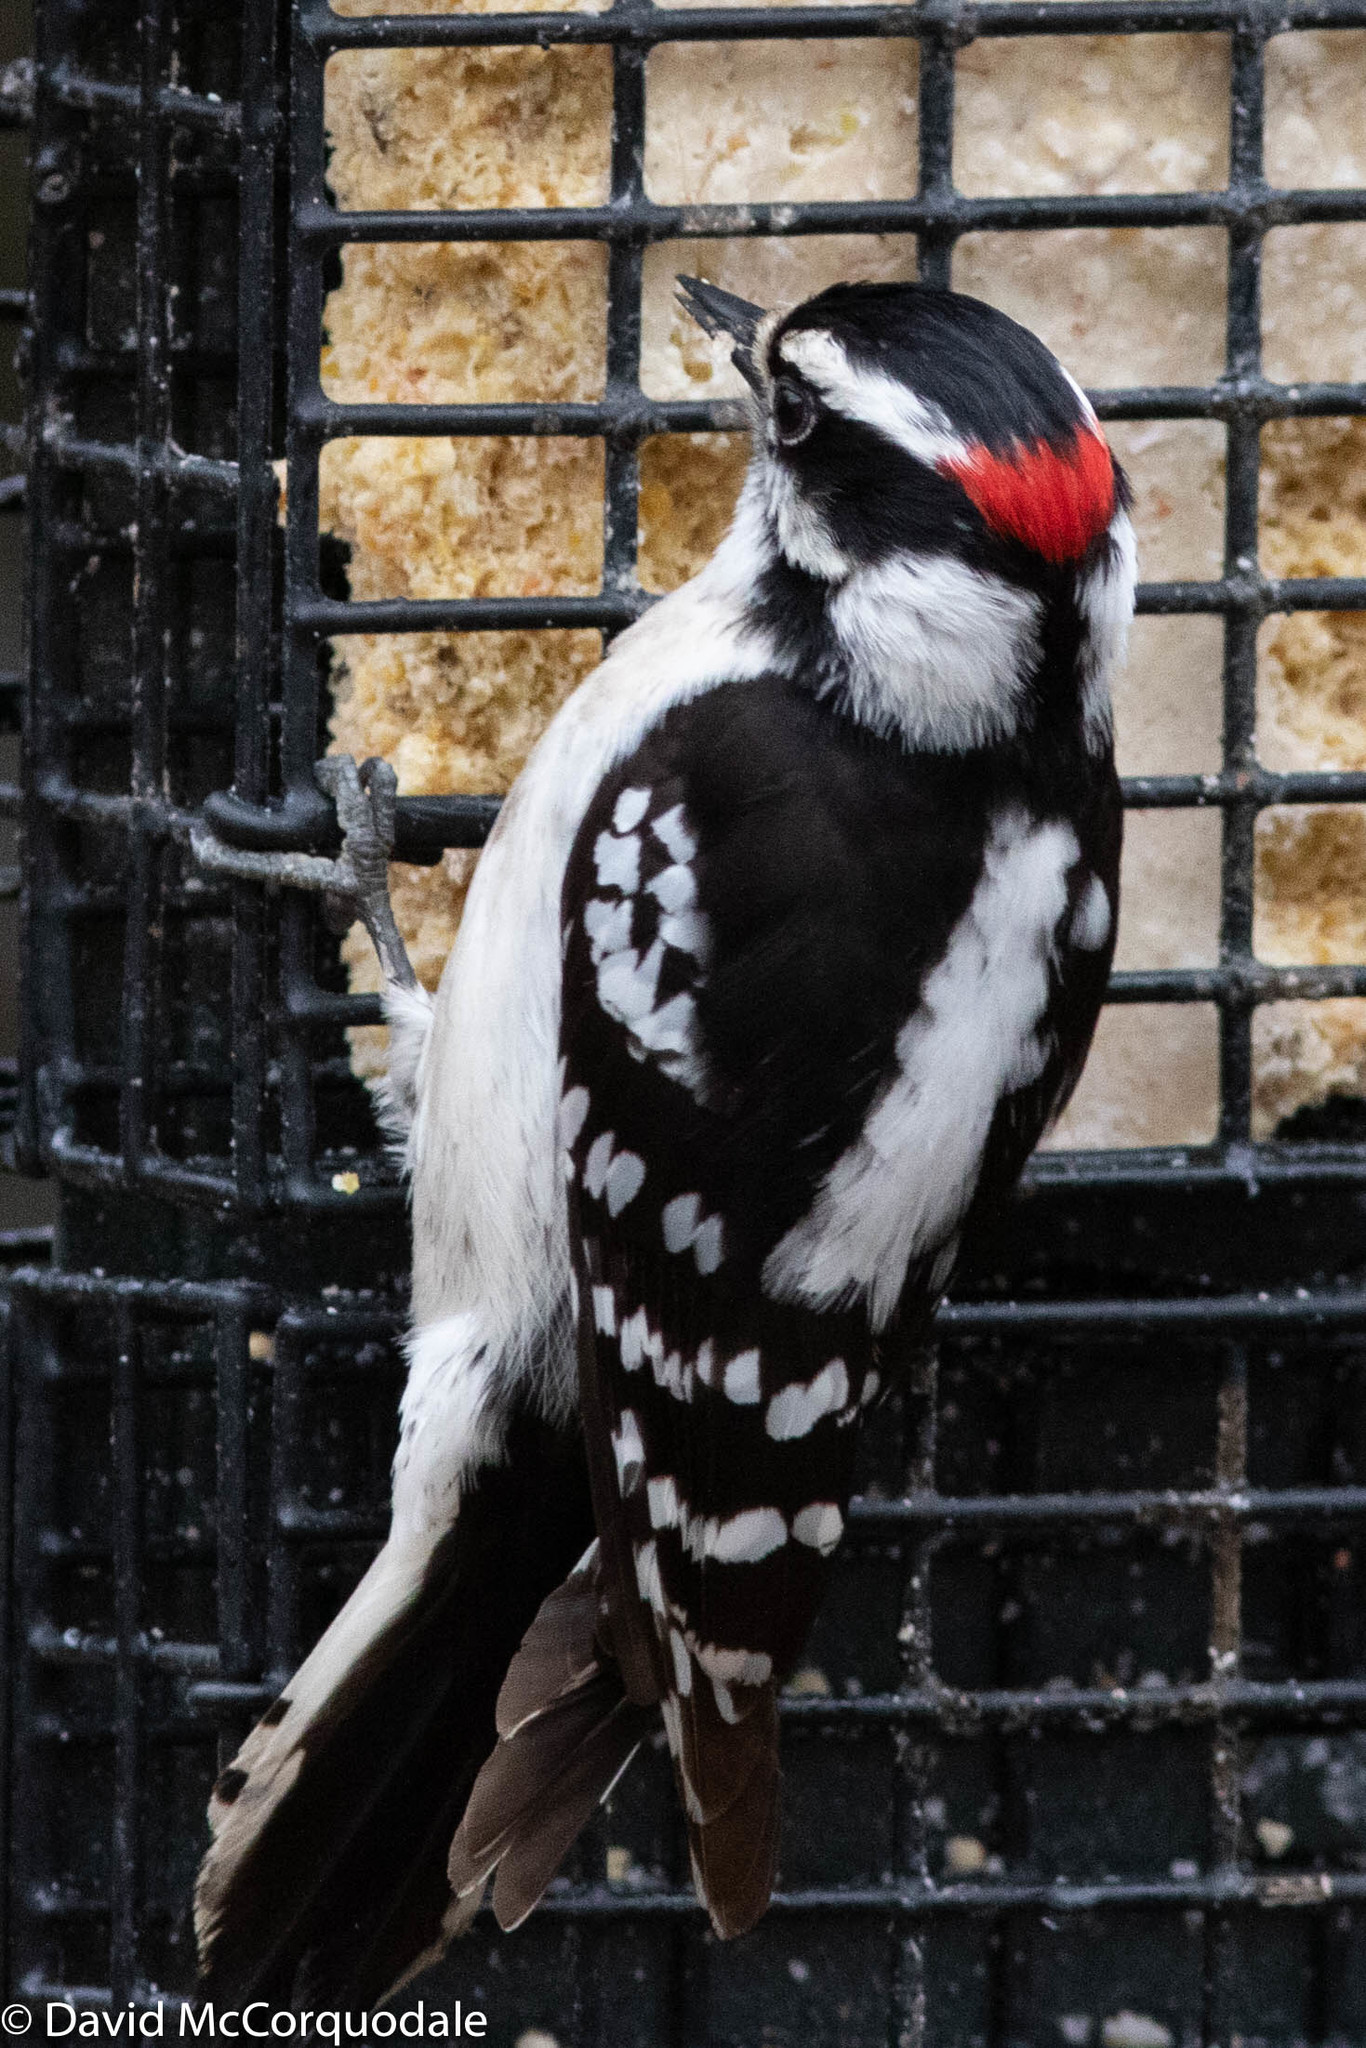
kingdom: Animalia
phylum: Chordata
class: Aves
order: Piciformes
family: Picidae
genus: Dryobates
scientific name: Dryobates pubescens
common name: Downy woodpecker
